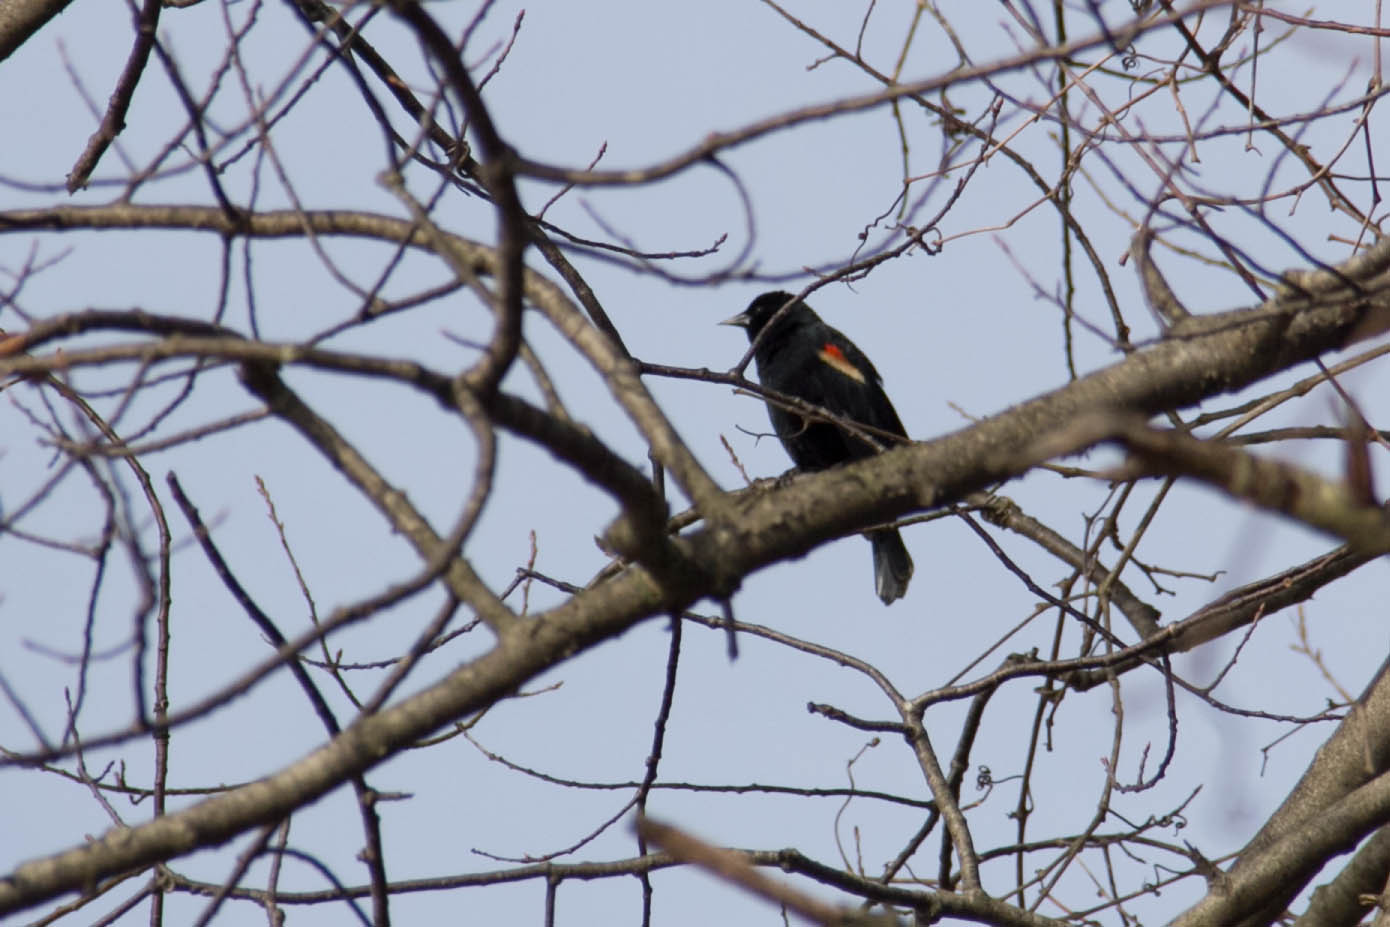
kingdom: Animalia
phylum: Chordata
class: Aves
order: Passeriformes
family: Icteridae
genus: Agelaius
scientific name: Agelaius phoeniceus
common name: Red-winged blackbird
